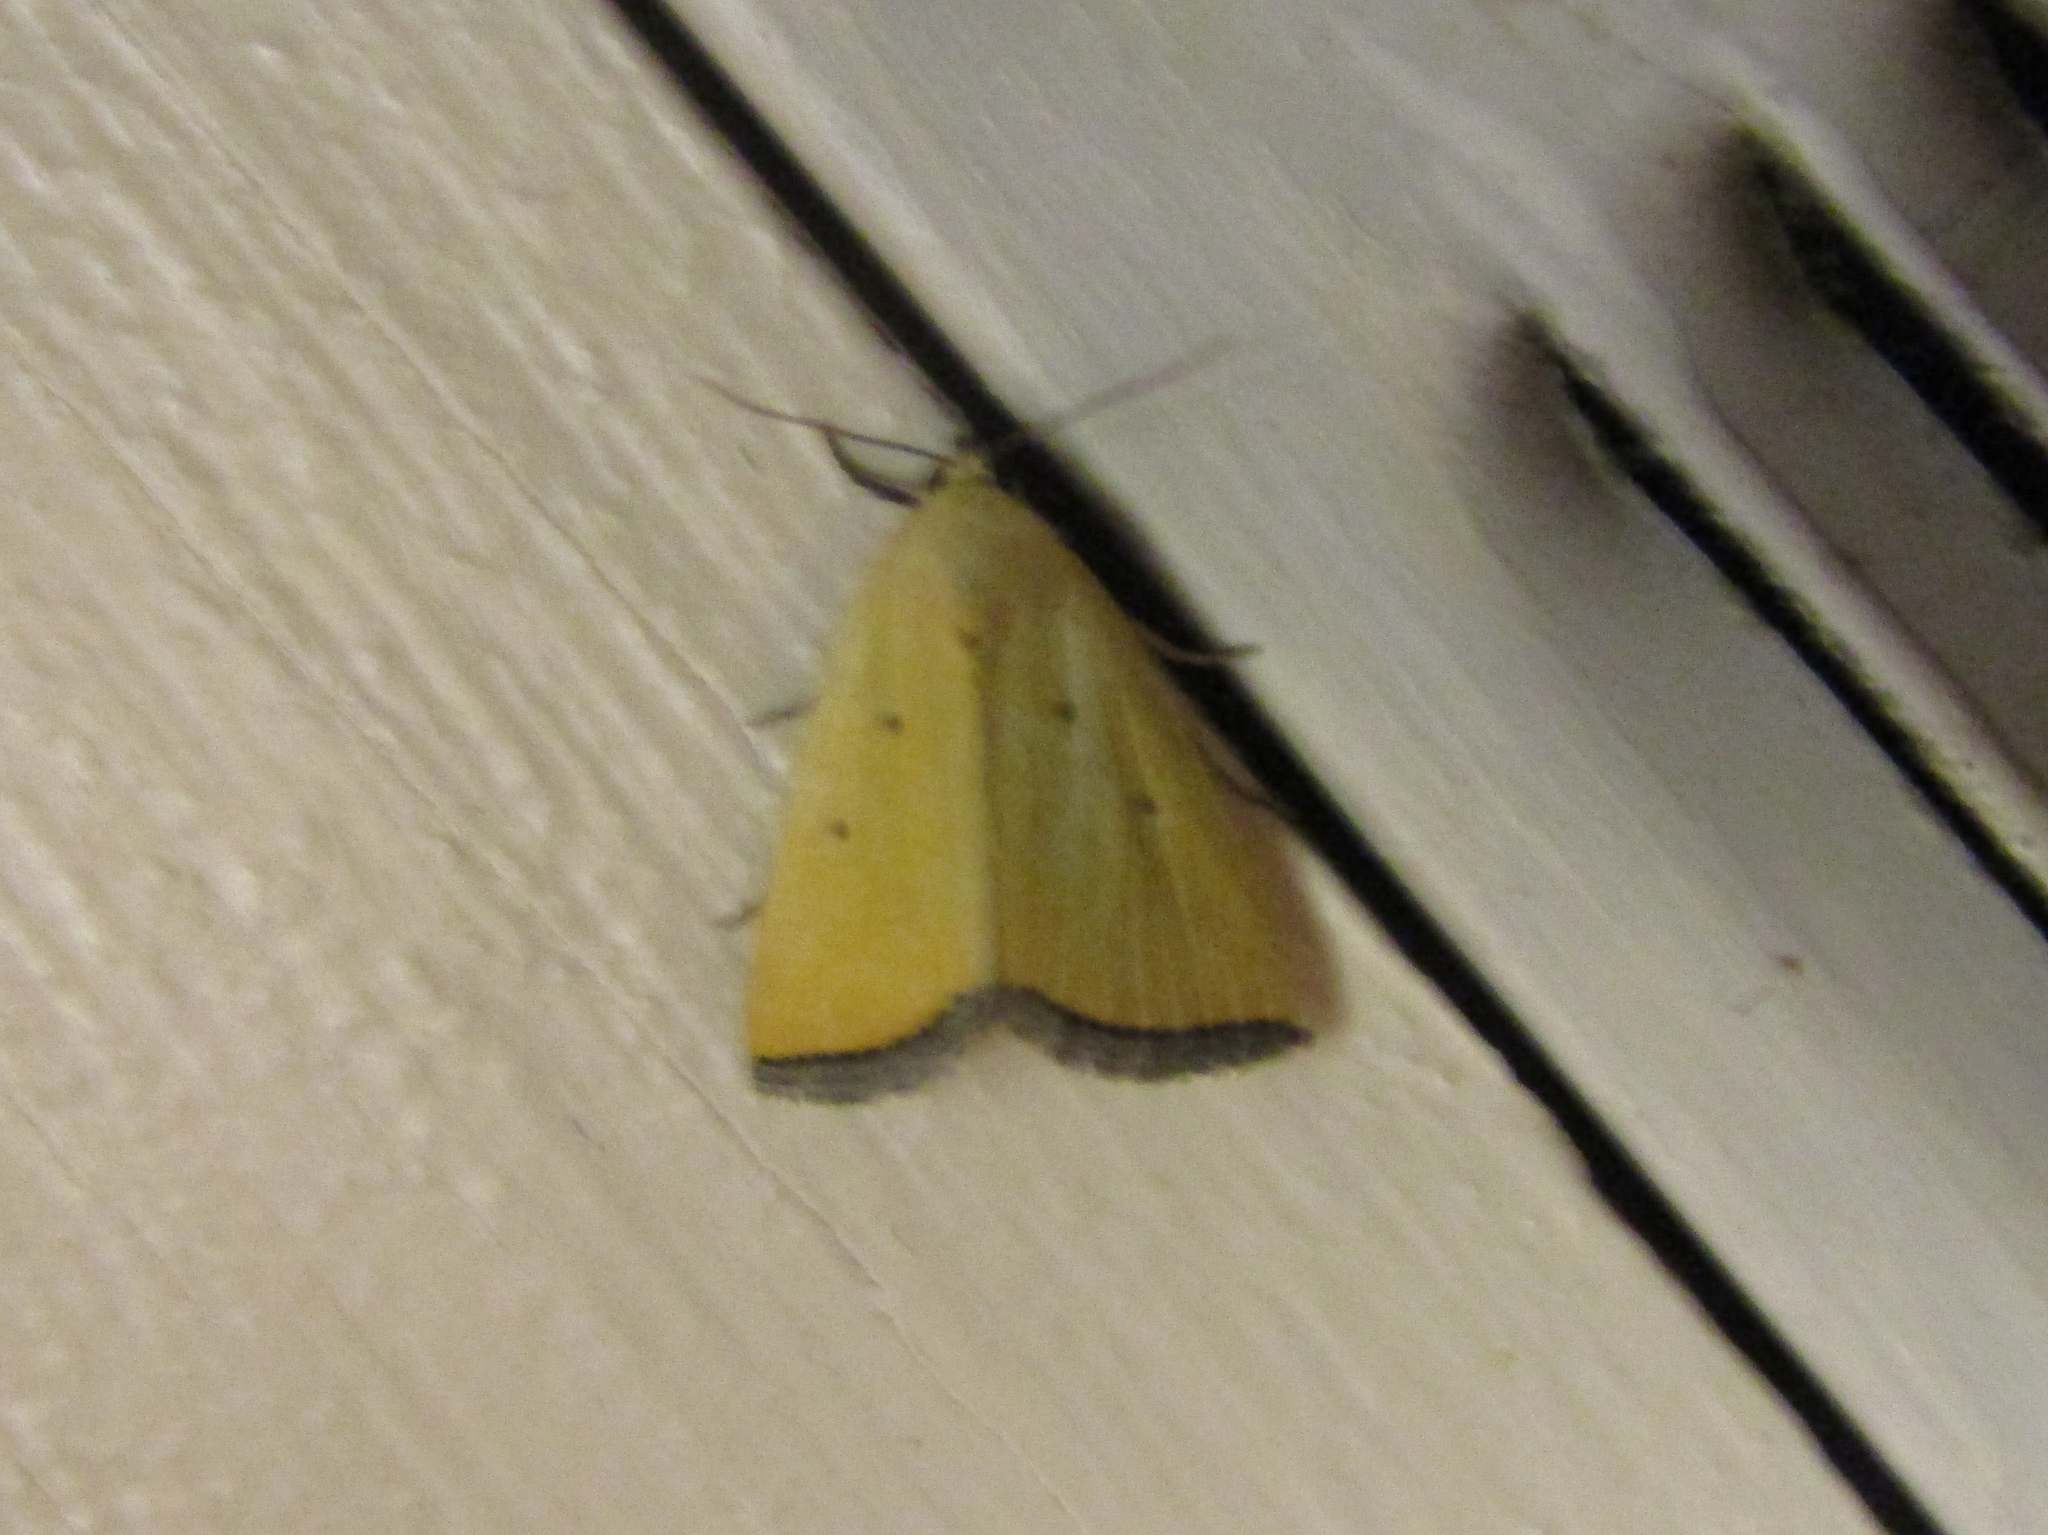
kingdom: Animalia
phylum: Arthropoda
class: Insecta
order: Lepidoptera
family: Noctuidae
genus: Marimatha
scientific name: Marimatha nigrofimbria
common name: Black-bordered lemon moth
